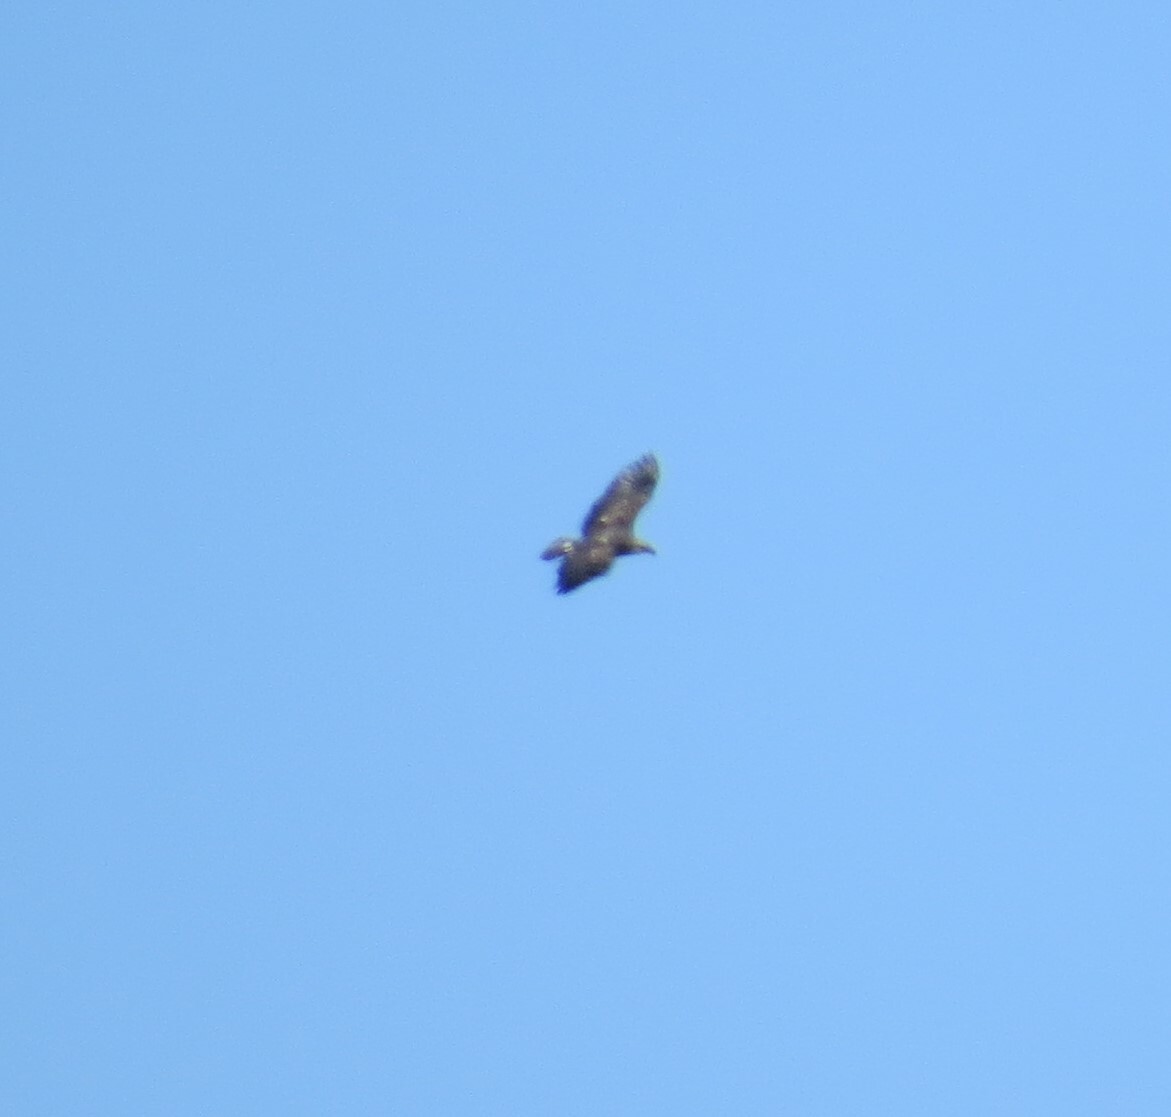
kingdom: Animalia
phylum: Chordata
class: Aves
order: Accipitriformes
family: Accipitridae
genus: Haliaeetus
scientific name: Haliaeetus leucocephalus
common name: Bald eagle
